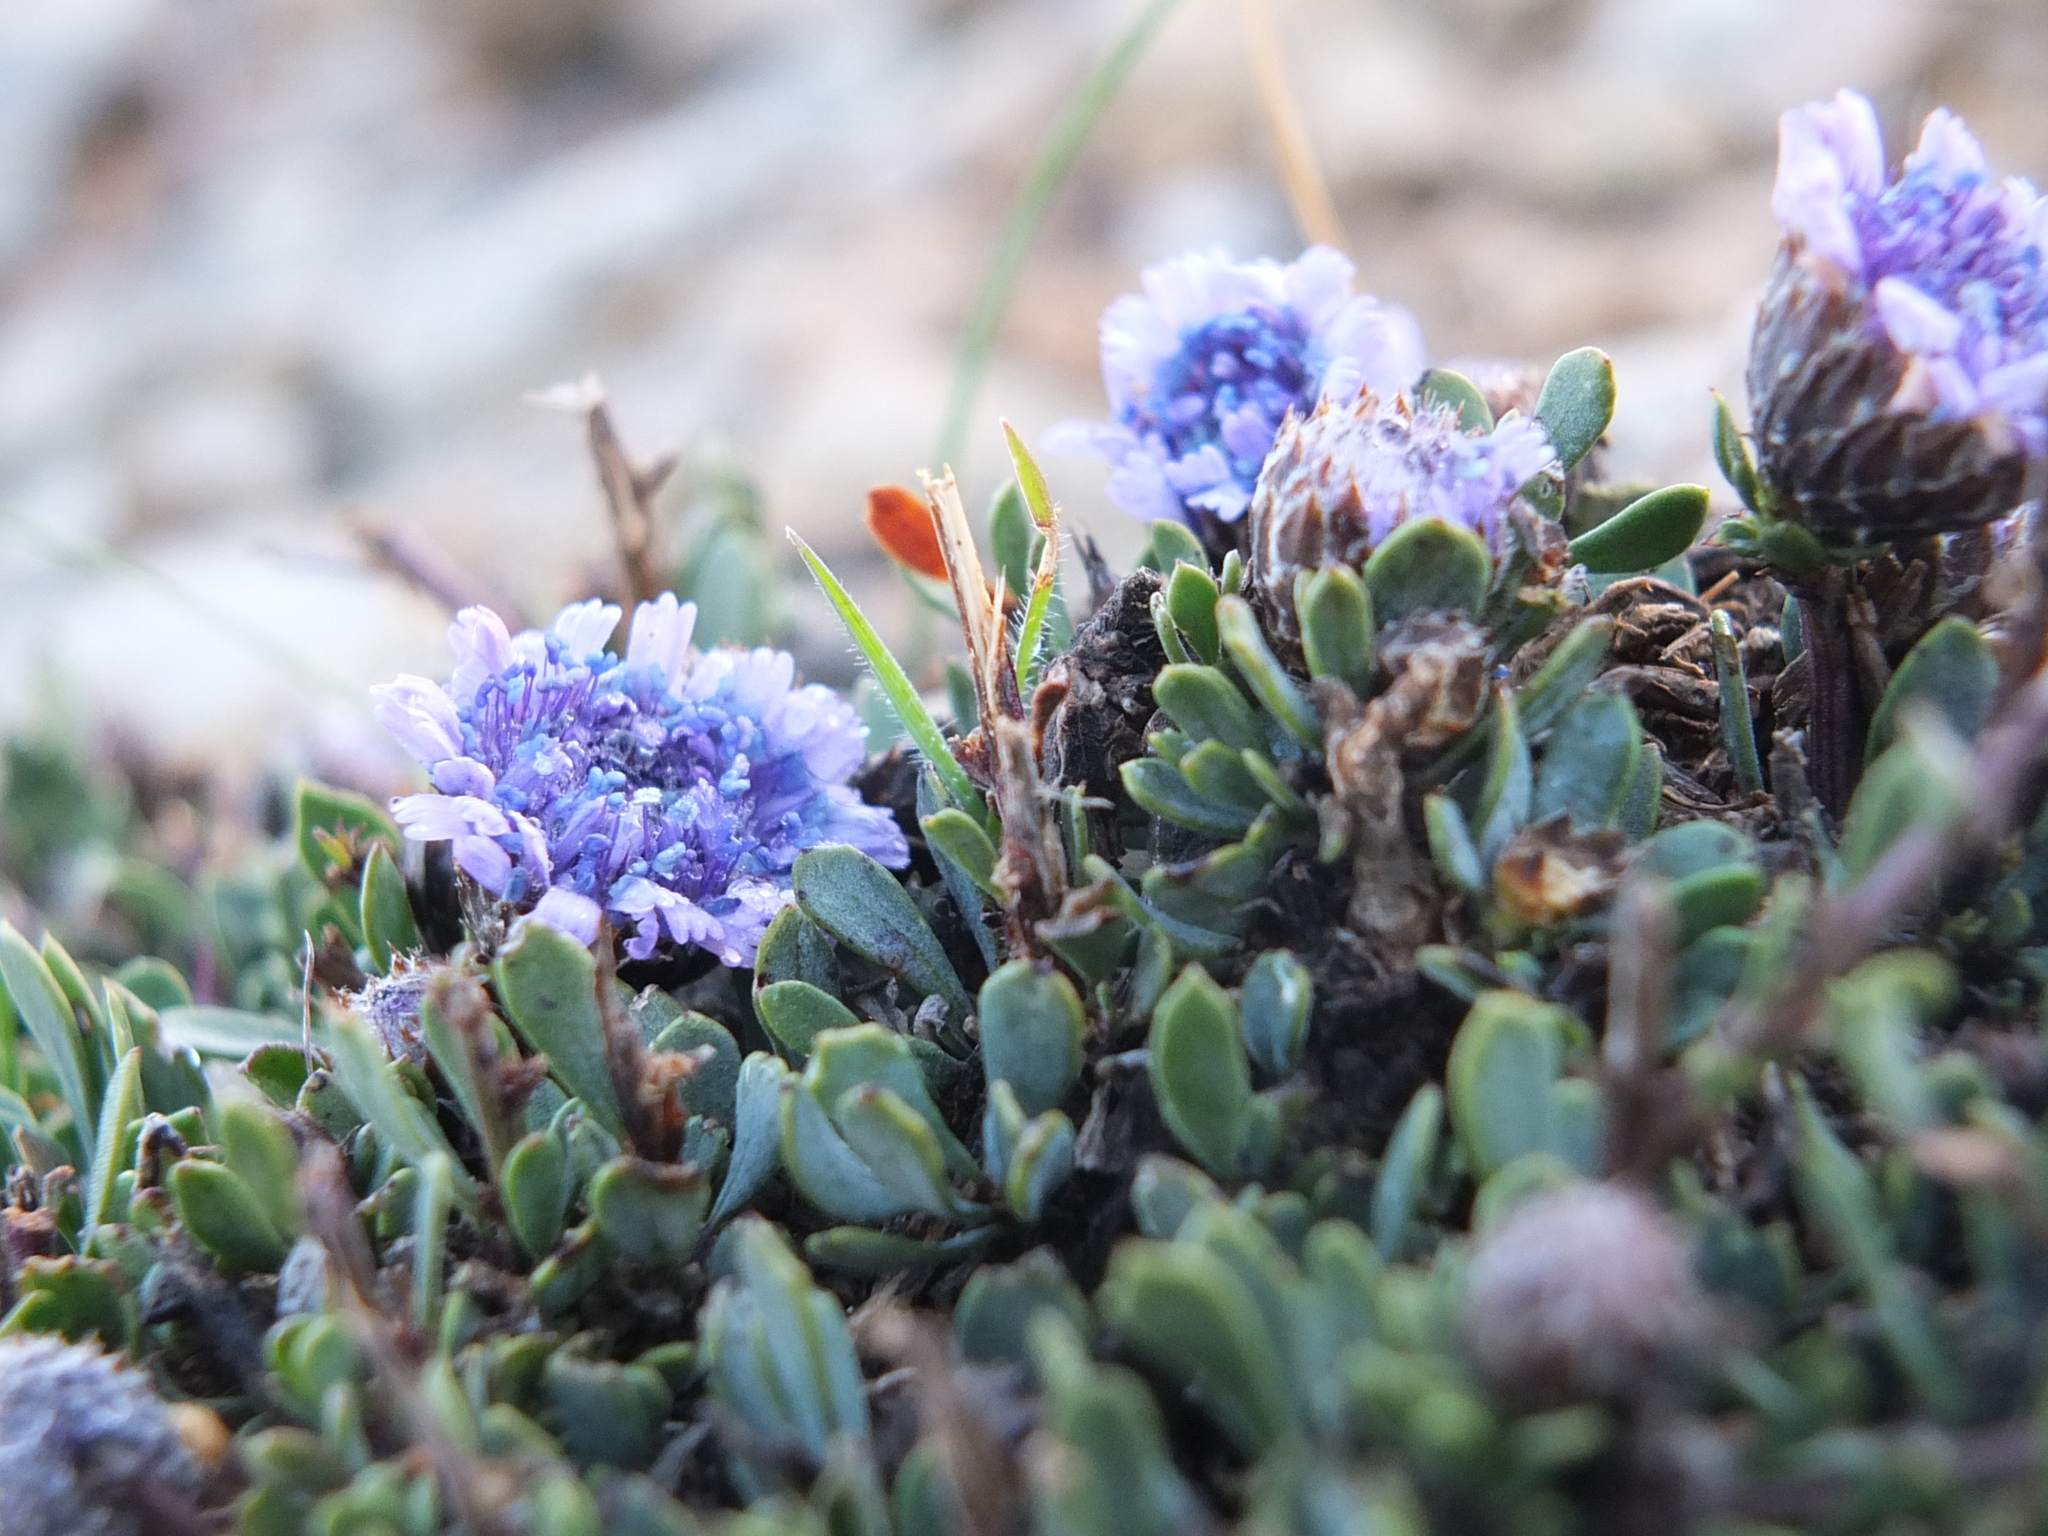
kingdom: Plantae
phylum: Tracheophyta
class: Magnoliopsida
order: Lamiales
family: Plantaginaceae
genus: Globularia
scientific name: Globularia alypum
